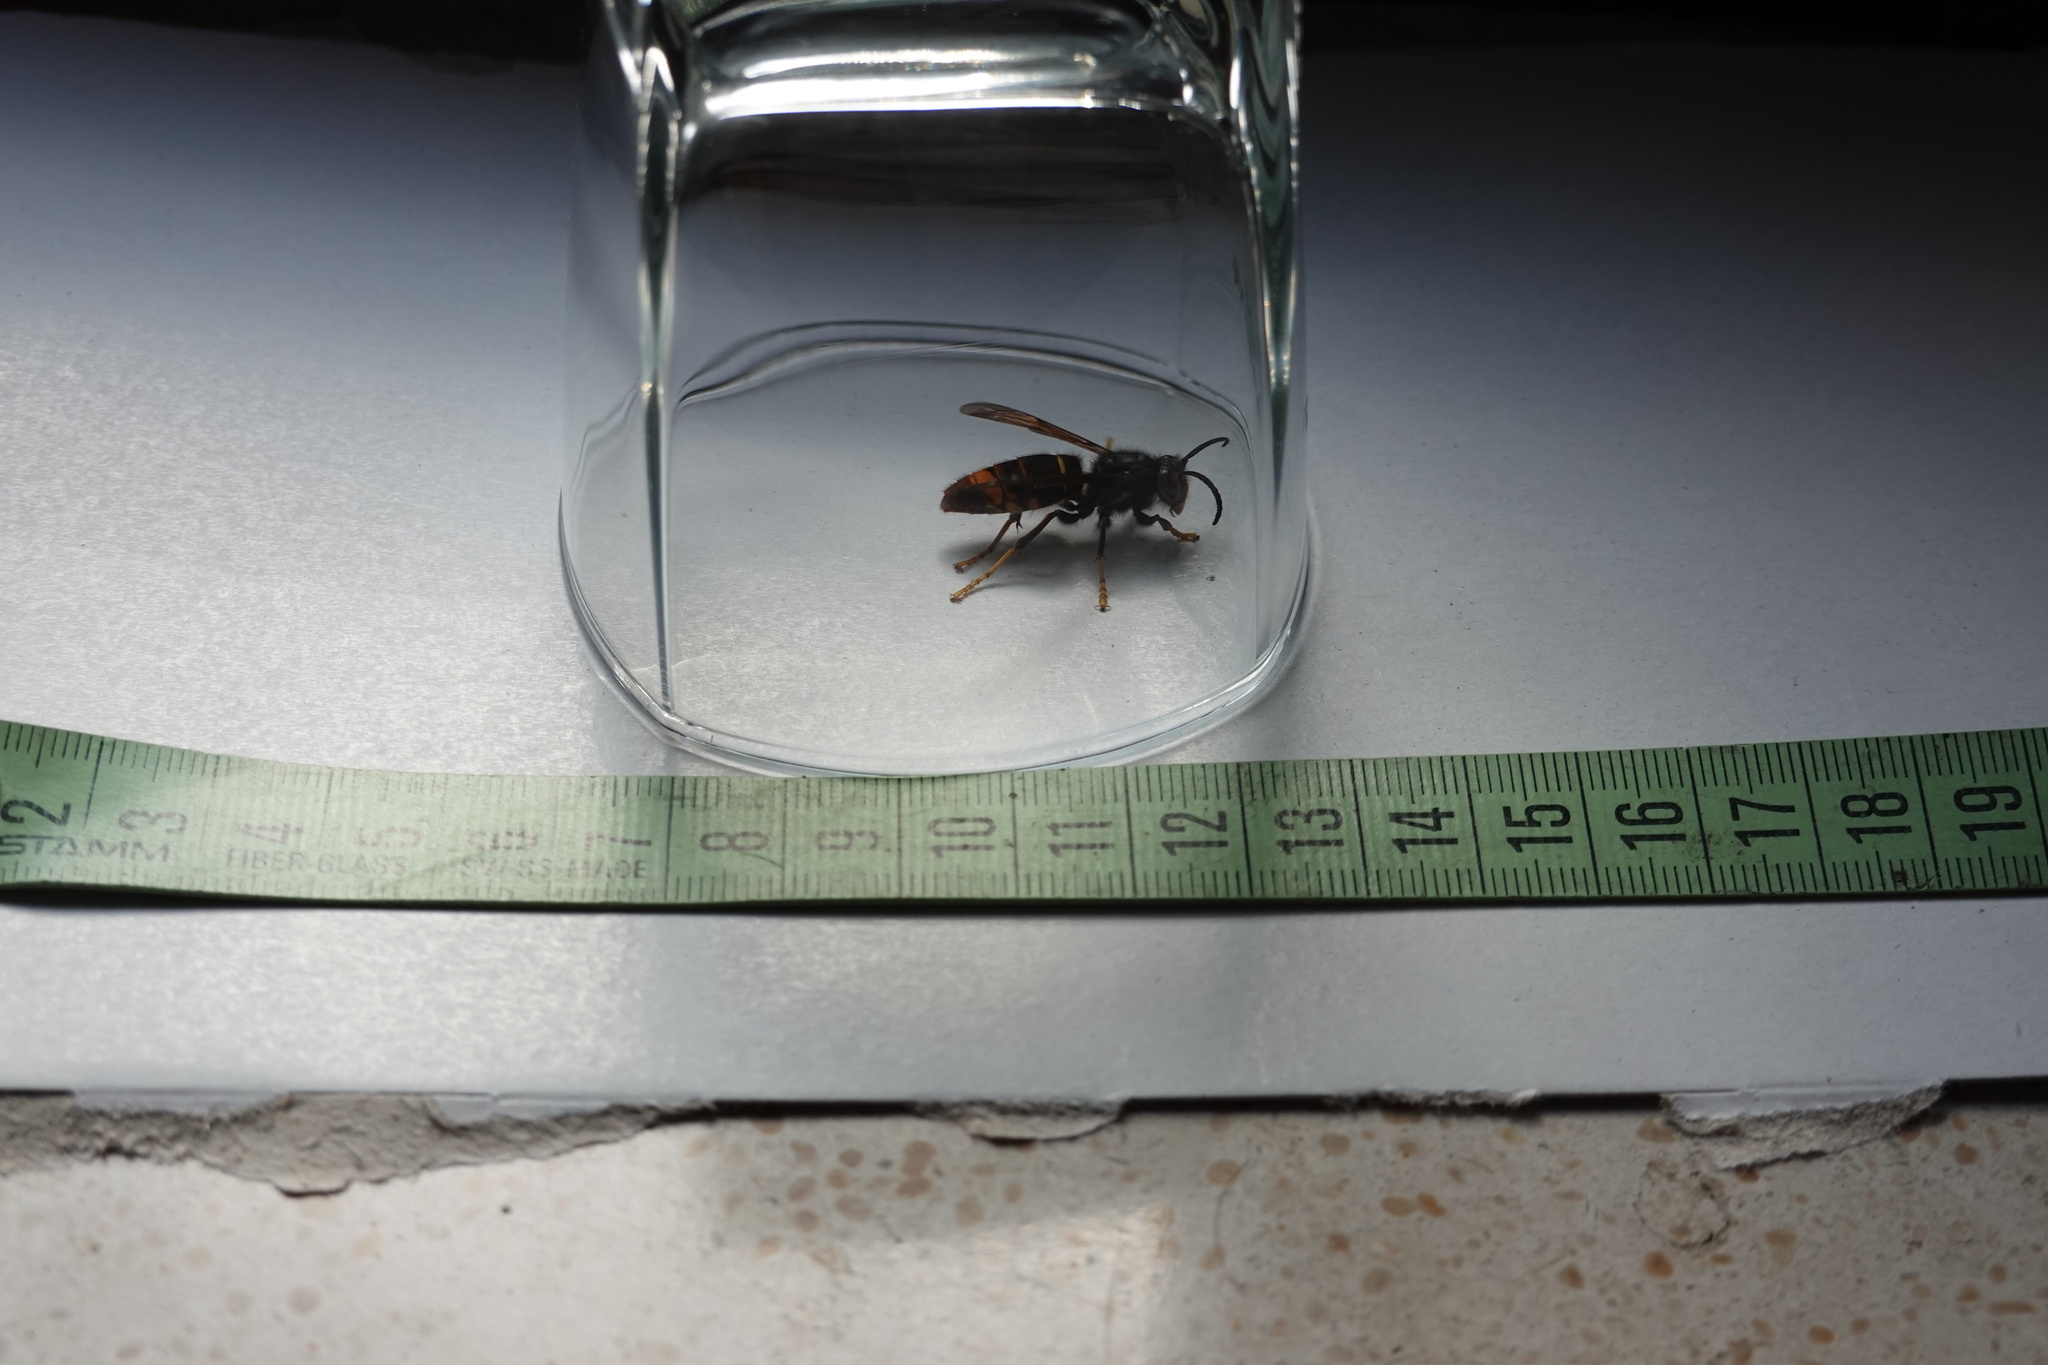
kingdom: Animalia
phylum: Arthropoda
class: Insecta
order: Hymenoptera
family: Vespidae
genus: Vespa
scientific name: Vespa velutina
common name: Asian hornet
